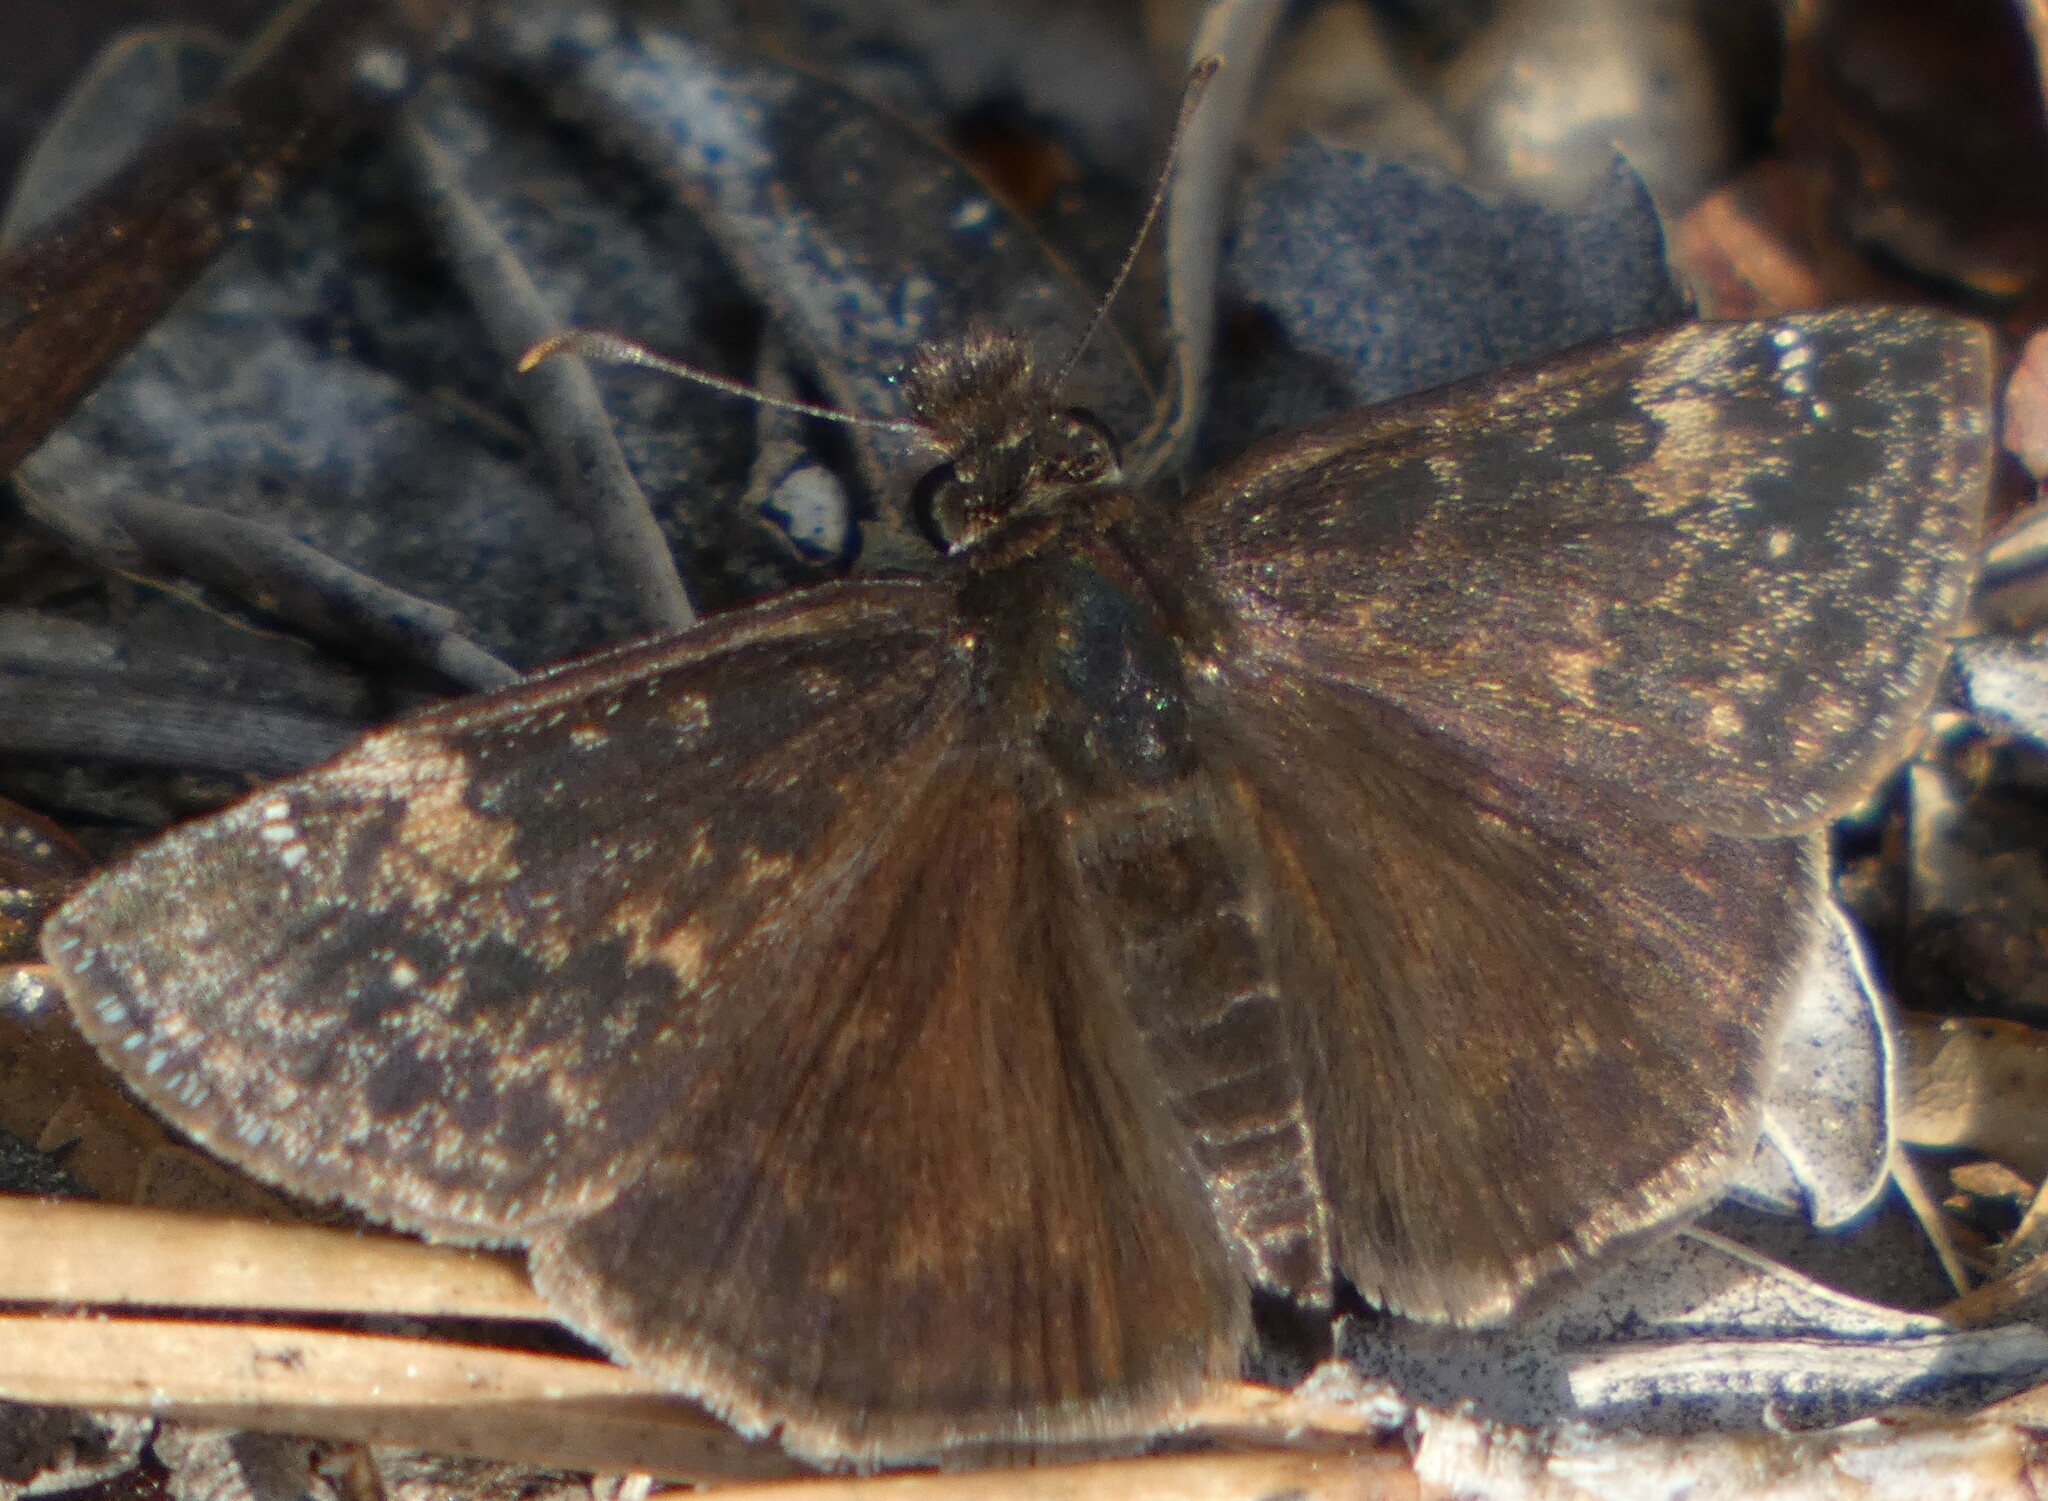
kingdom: Animalia
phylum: Arthropoda
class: Insecta
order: Lepidoptera
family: Hesperiidae
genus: Erynnis
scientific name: Erynnis zarucco
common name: Zarucco duskywing
